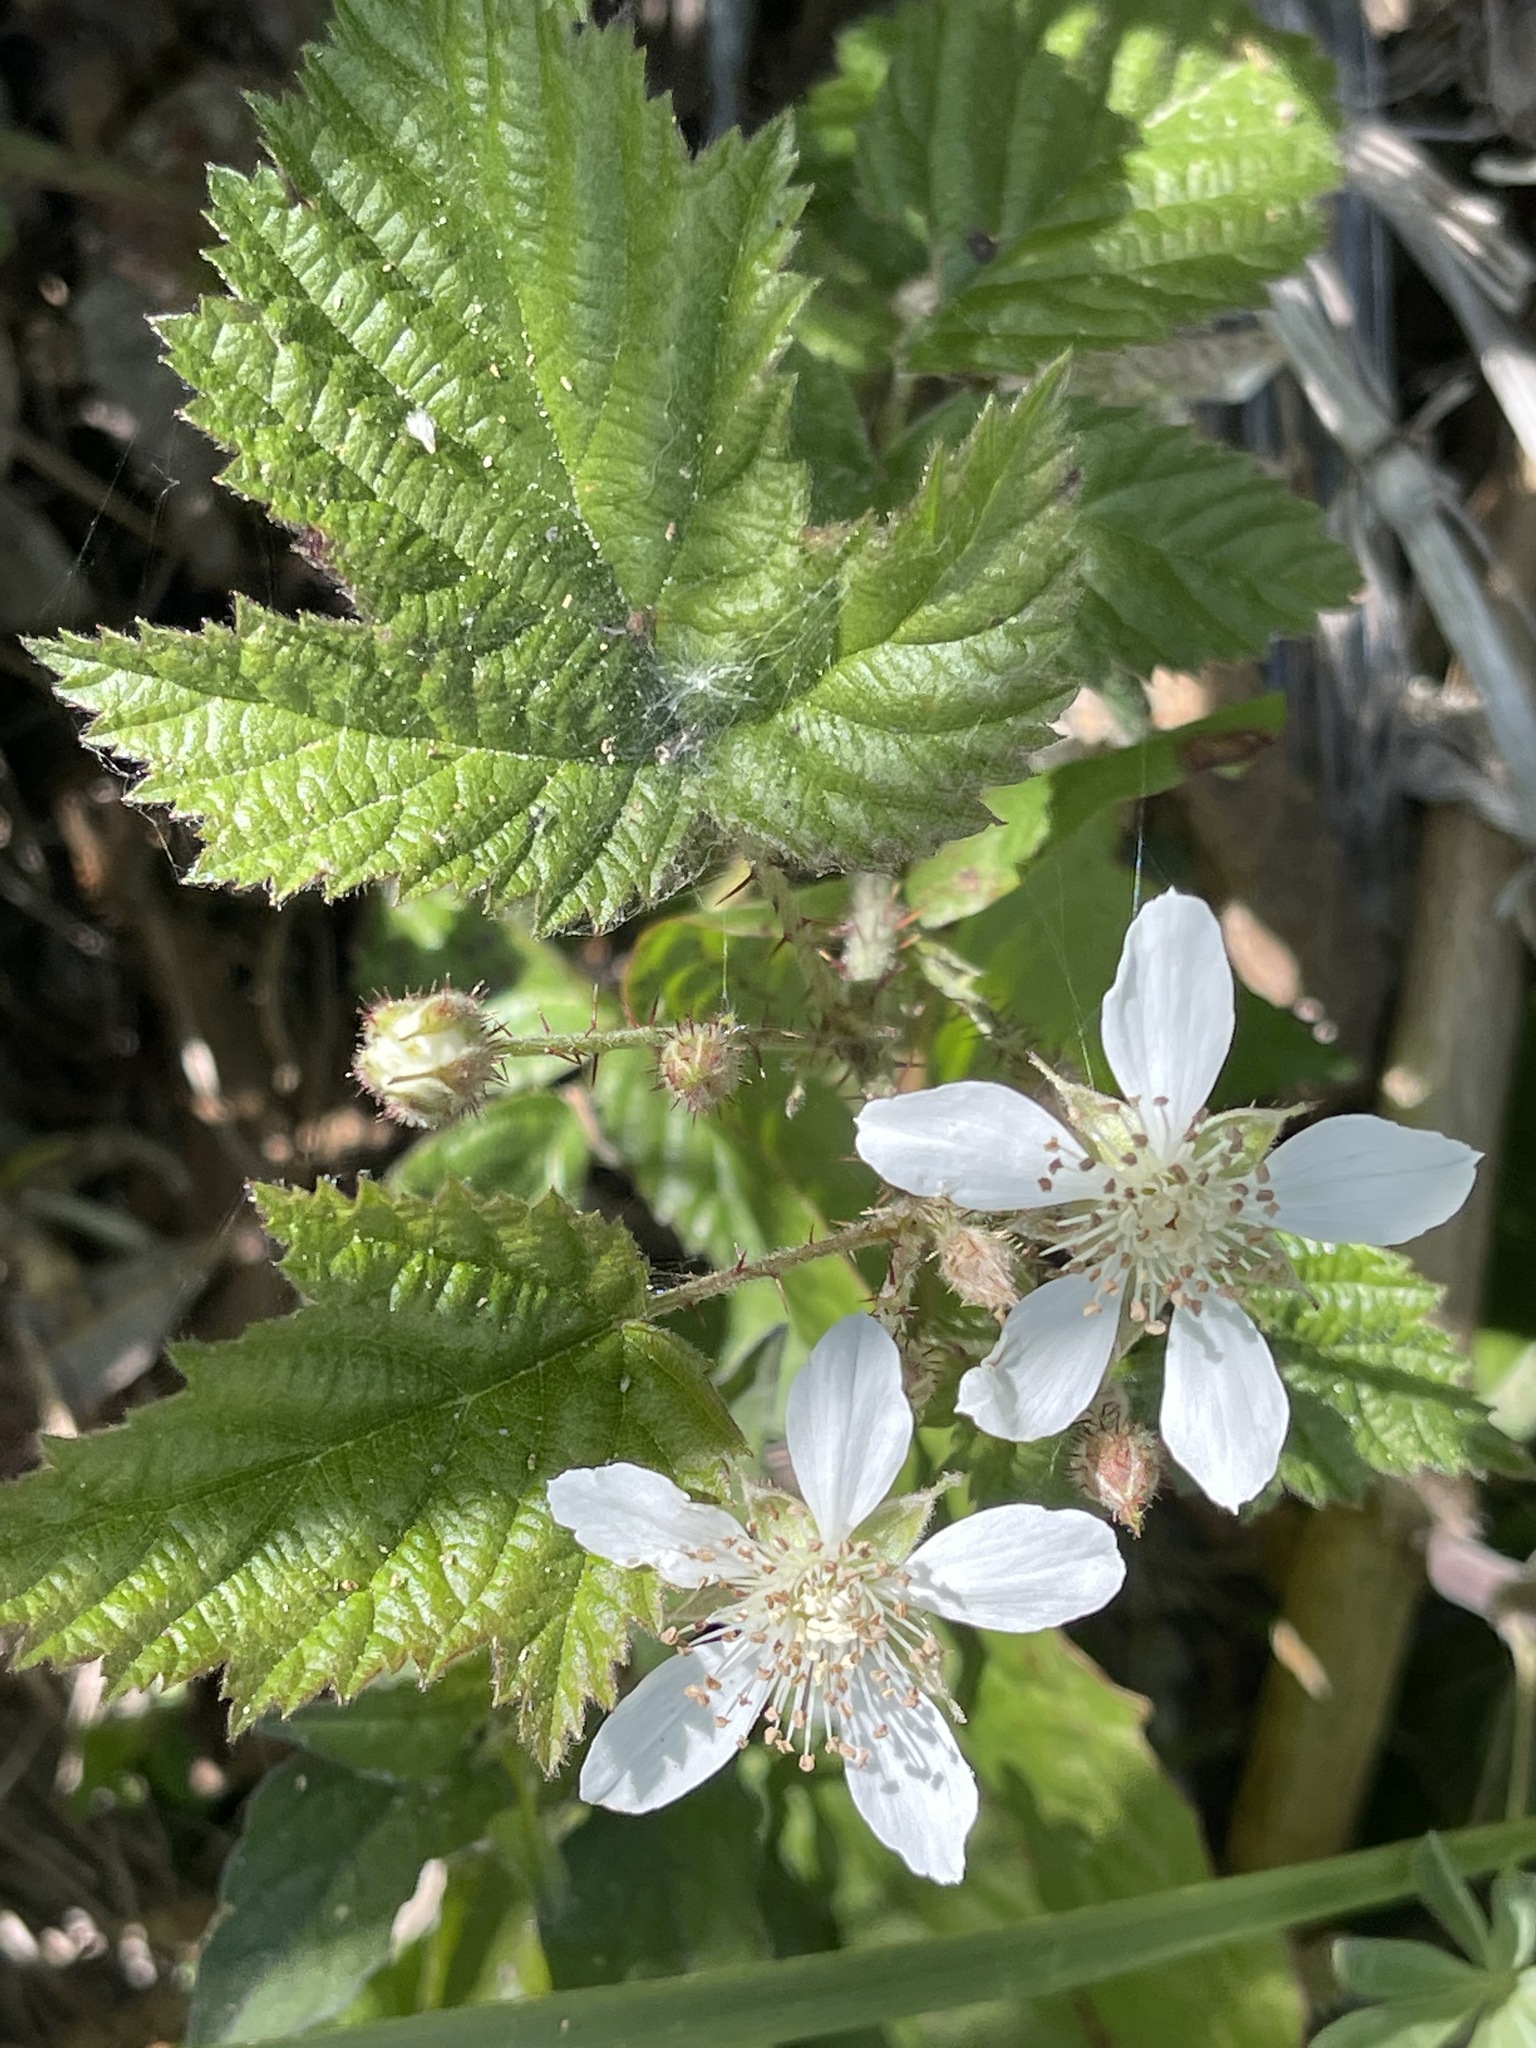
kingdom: Plantae
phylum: Tracheophyta
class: Magnoliopsida
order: Rosales
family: Rosaceae
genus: Rubus
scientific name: Rubus ursinus
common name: Pacific blackberry
